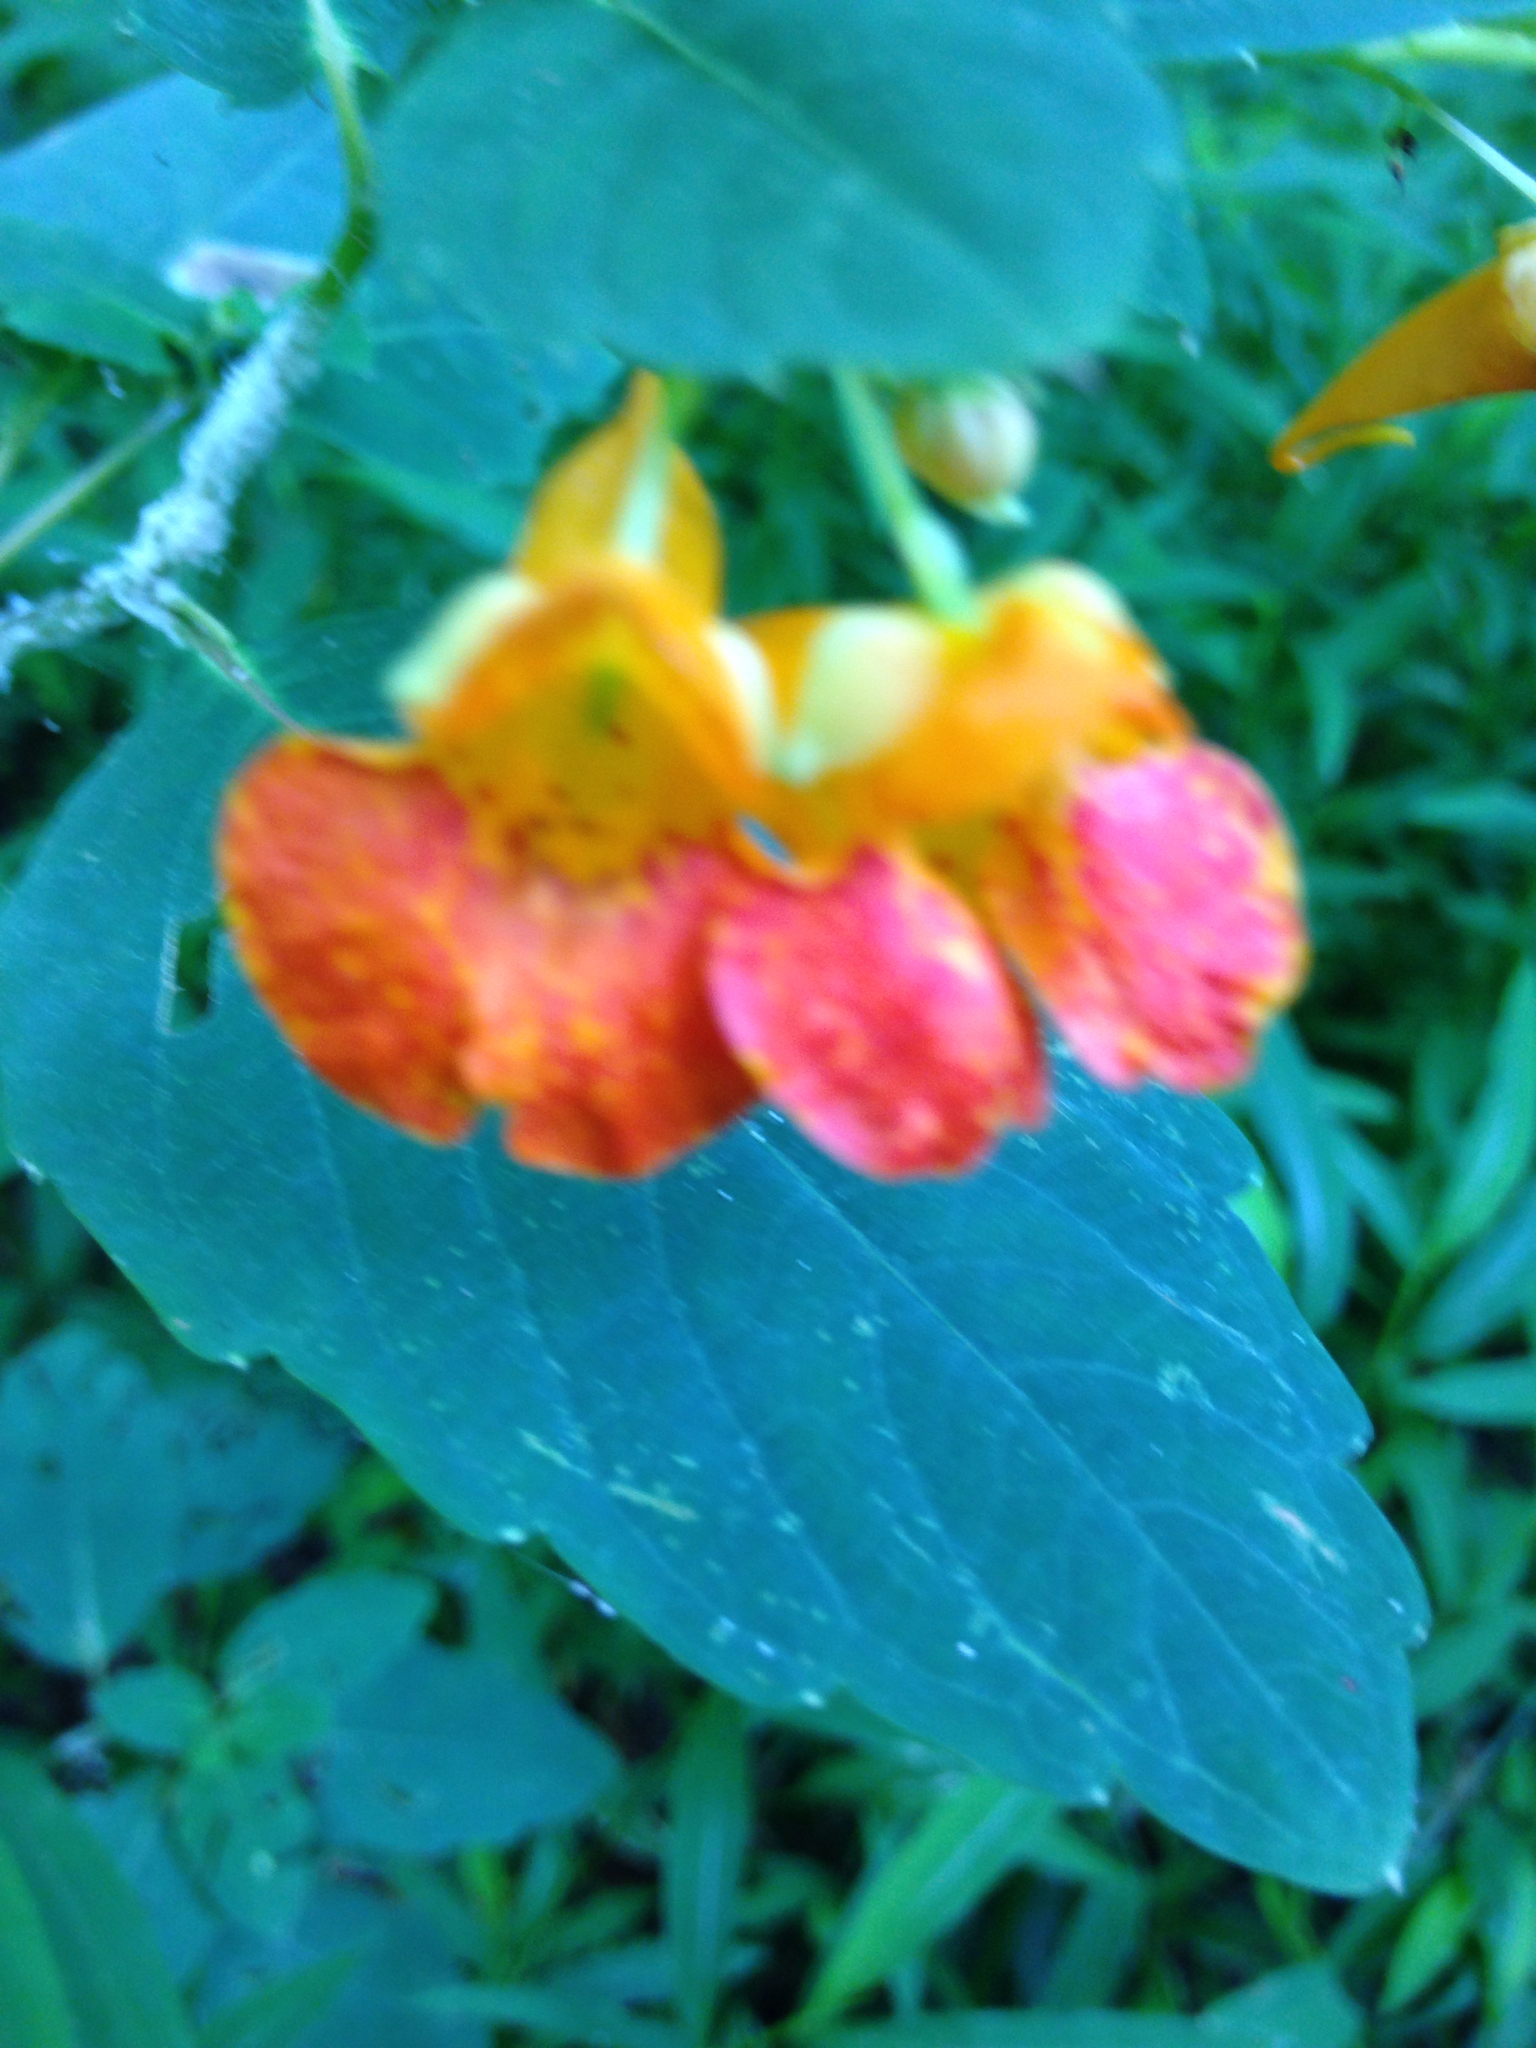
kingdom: Plantae
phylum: Tracheophyta
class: Magnoliopsida
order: Ericales
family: Balsaminaceae
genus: Impatiens
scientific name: Impatiens capensis
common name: Orange balsam
